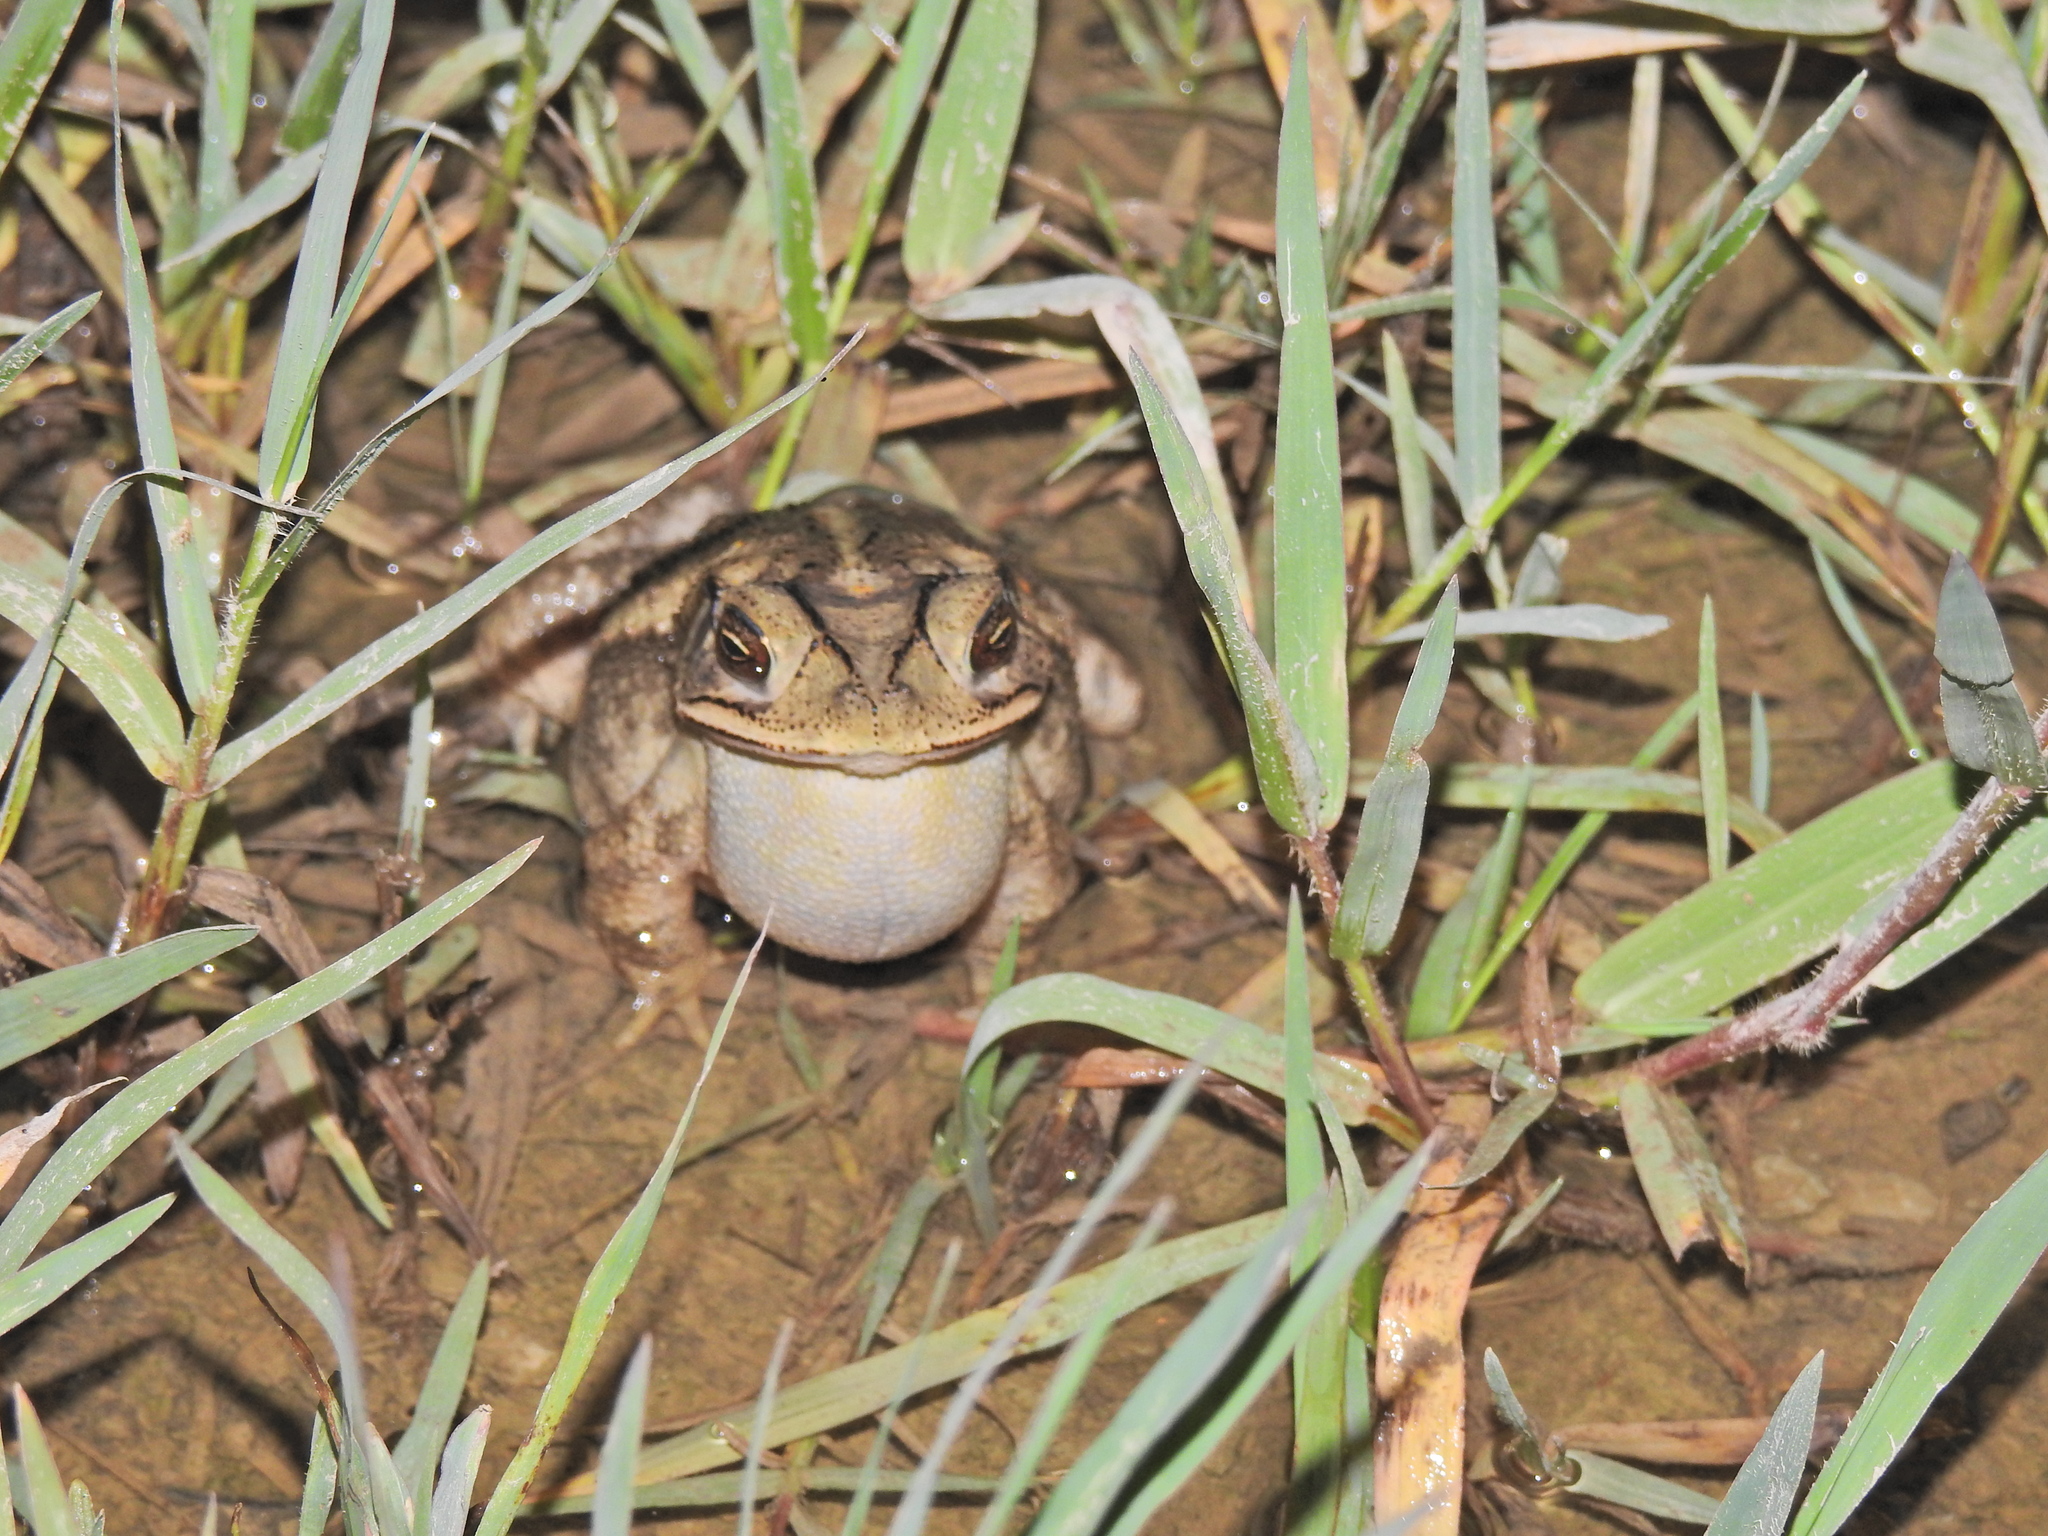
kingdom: Animalia
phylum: Chordata
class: Amphibia
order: Anura
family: Bufonidae
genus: Incilius
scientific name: Incilius nebulifer
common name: Gulf coast toad
